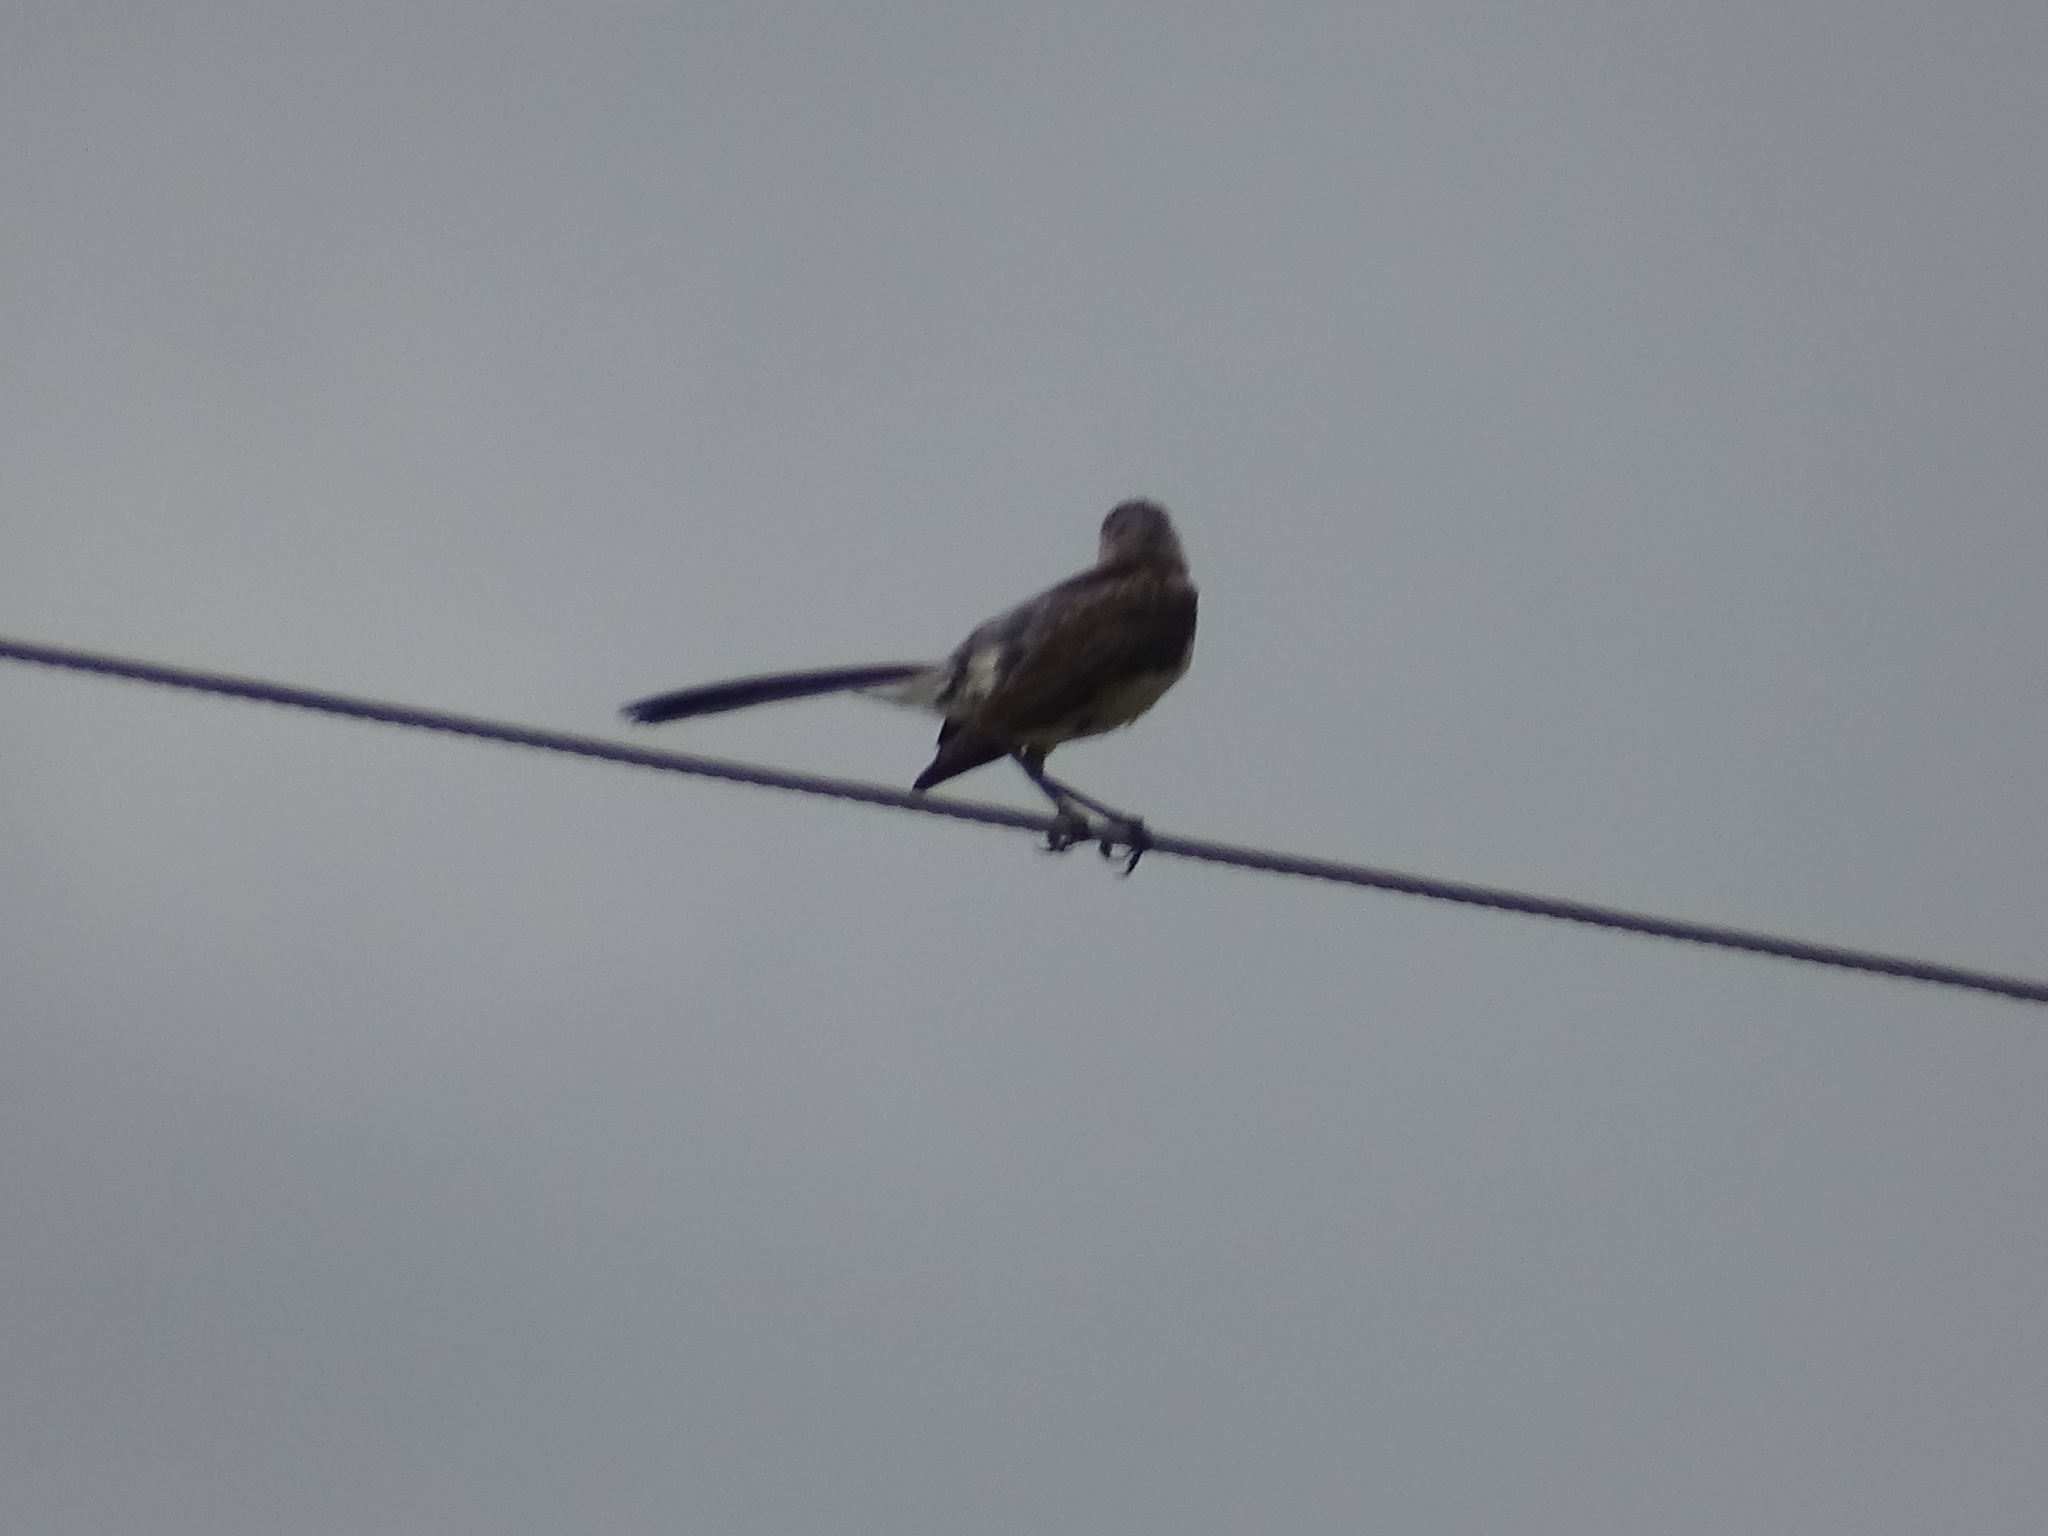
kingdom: Animalia
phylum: Chordata
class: Aves
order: Passeriformes
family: Mimidae
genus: Mimus
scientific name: Mimus polyglottos
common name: Northern mockingbird
